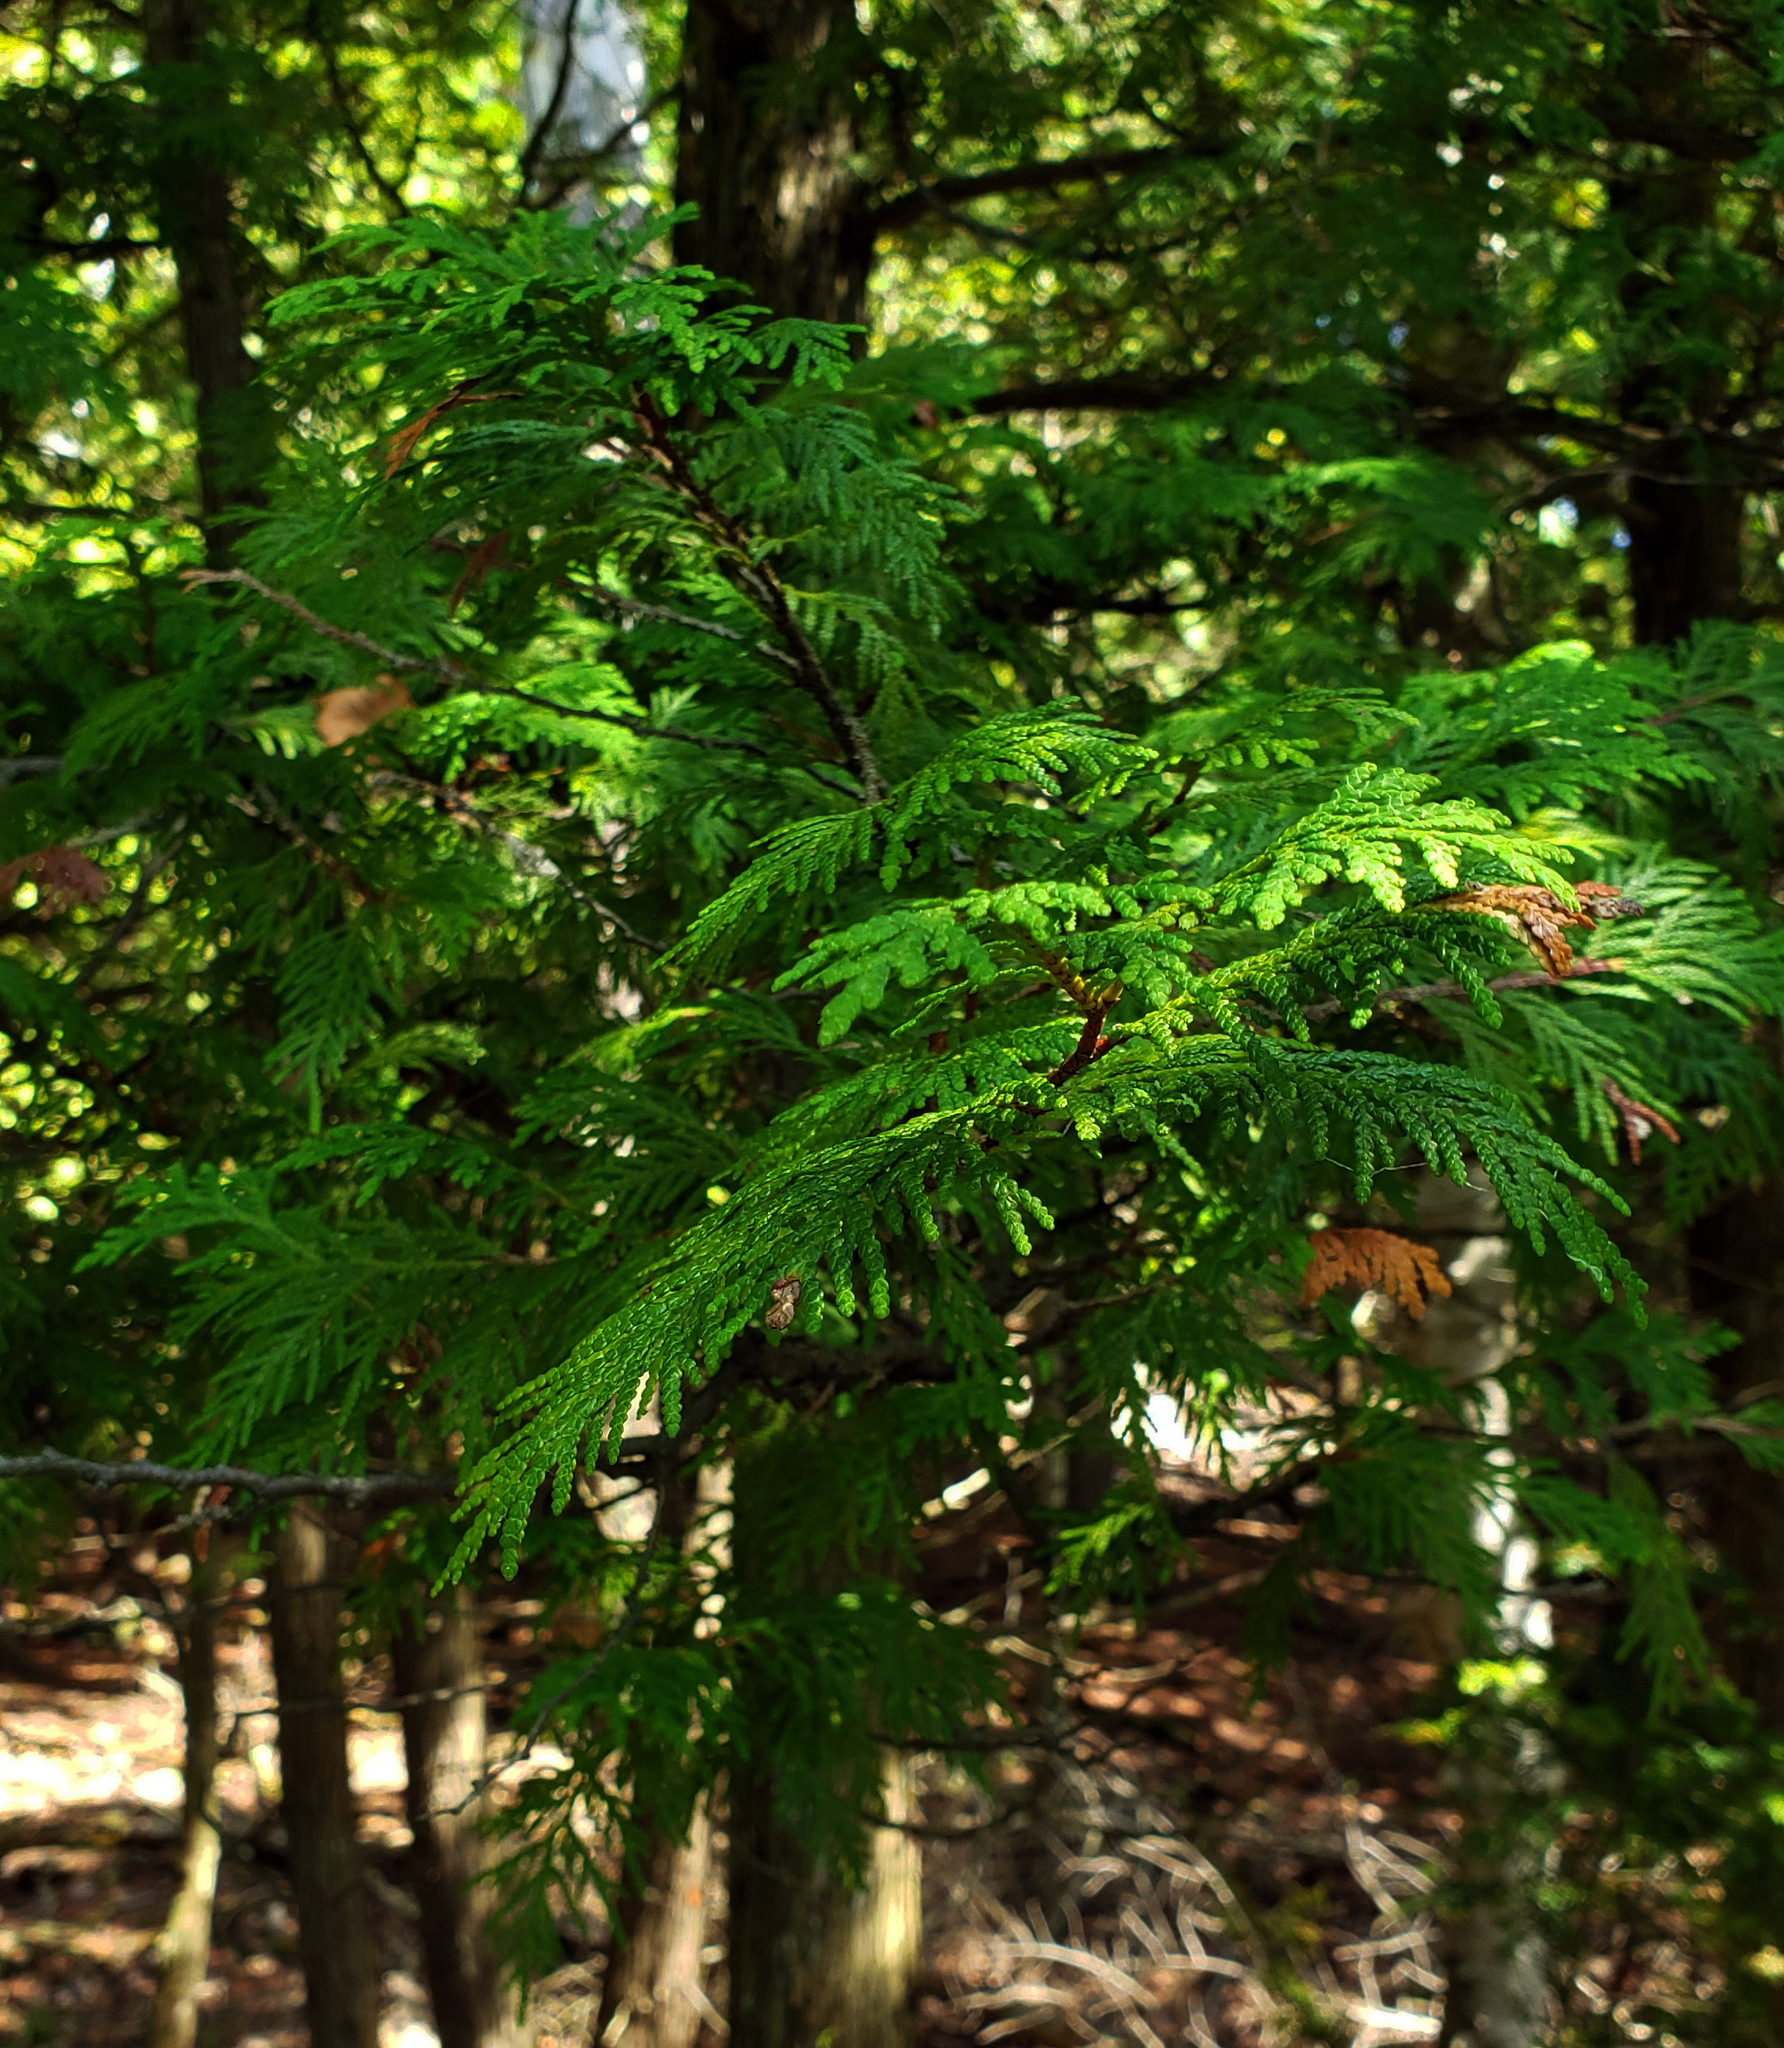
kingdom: Plantae
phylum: Tracheophyta
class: Pinopsida
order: Pinales
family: Cupressaceae
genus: Thuja
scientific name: Thuja occidentalis
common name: Northern white-cedar
